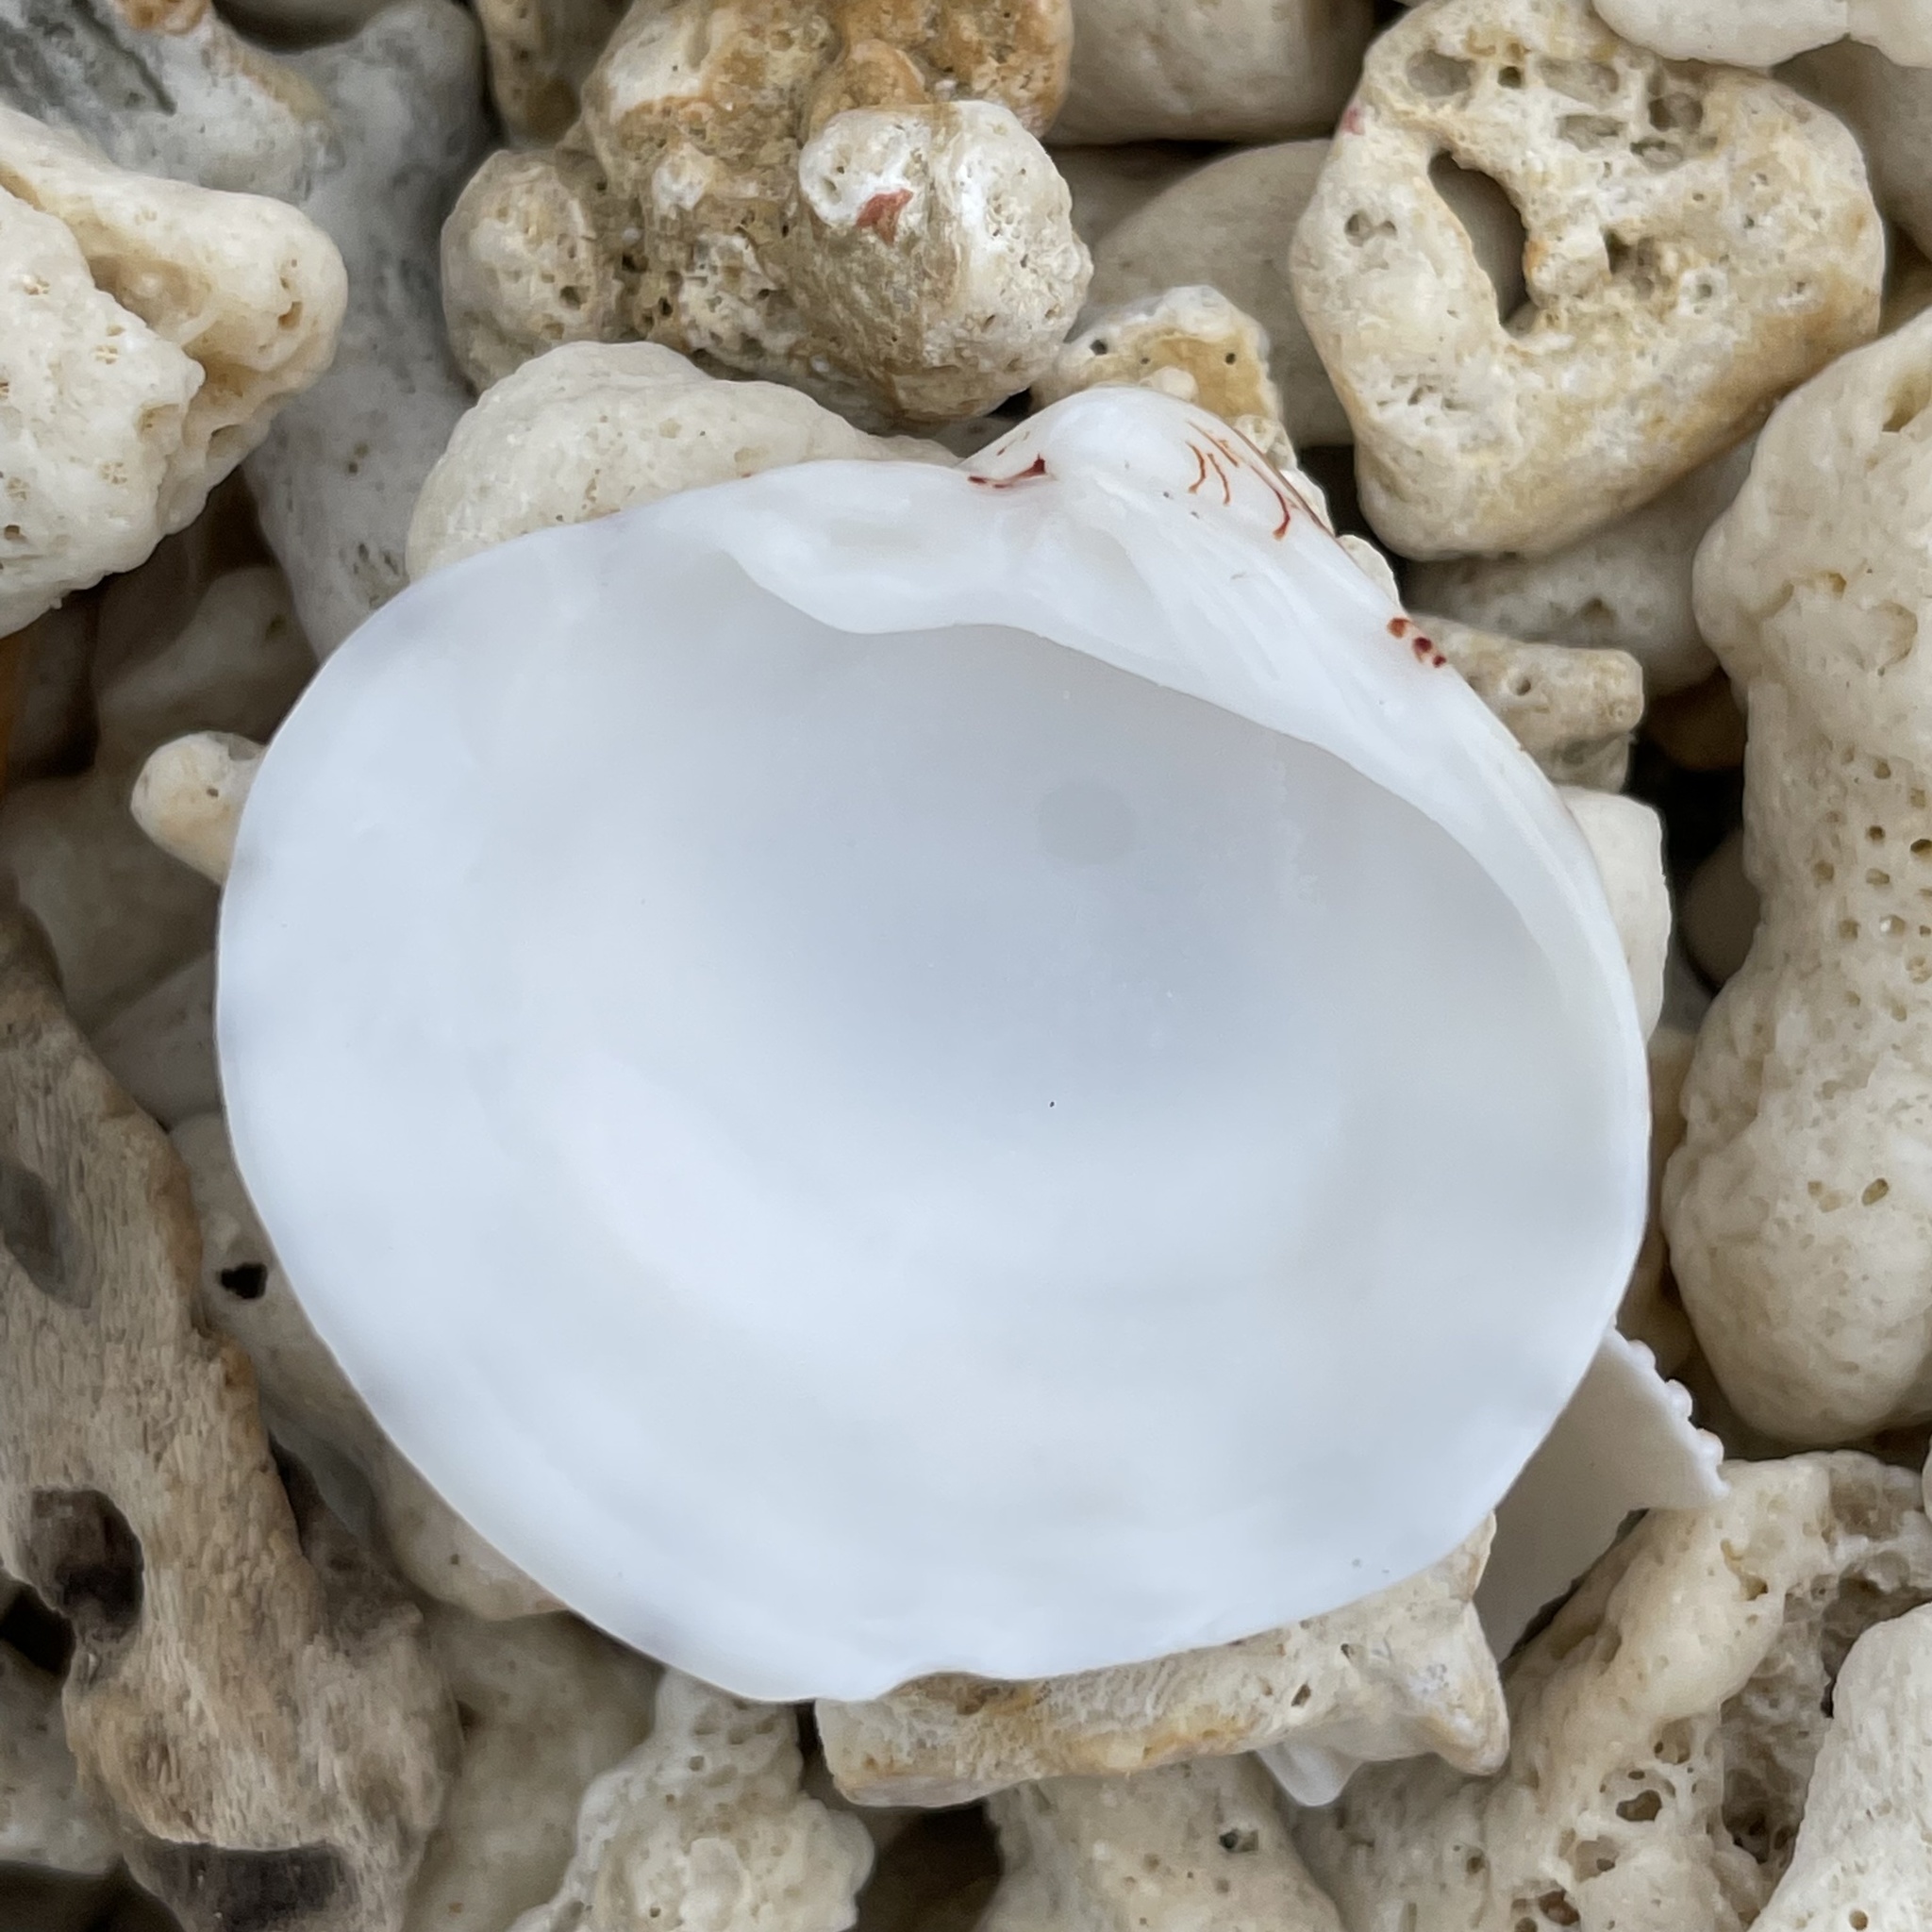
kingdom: Animalia
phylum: Mollusca
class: Bivalvia
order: Venerida
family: Veneridae
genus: Lioconcha
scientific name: Lioconcha castrensis
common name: Camp pitar-venus
